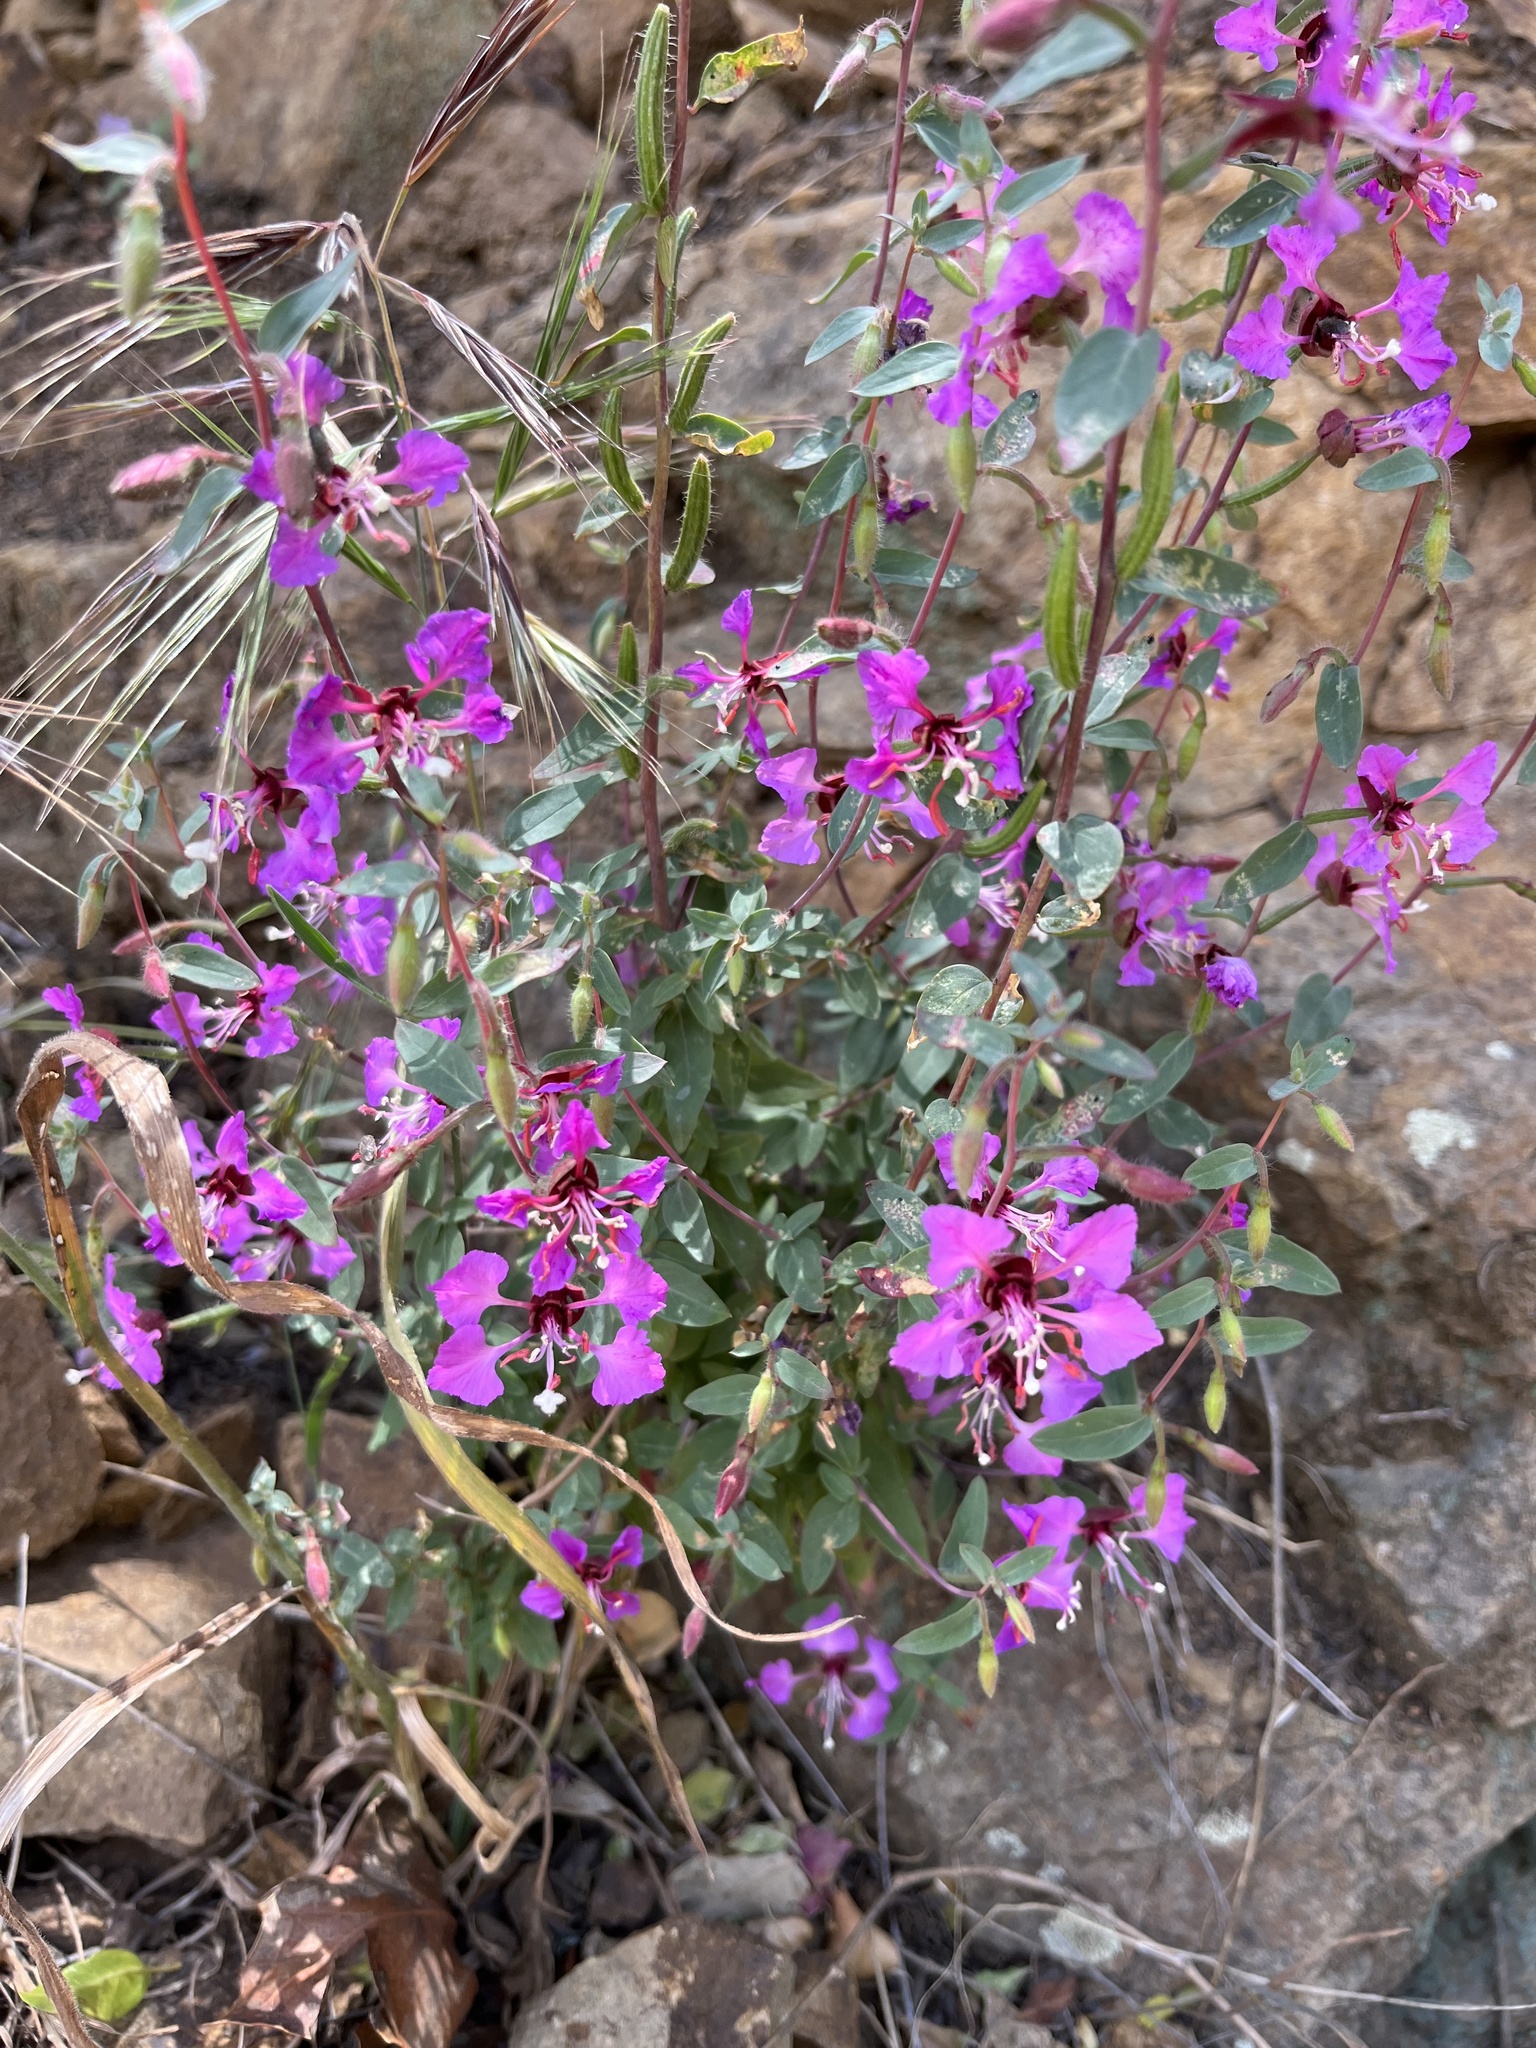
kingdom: Plantae
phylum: Tracheophyta
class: Magnoliopsida
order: Myrtales
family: Onagraceae
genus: Clarkia
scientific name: Clarkia unguiculata
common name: Clarkia
